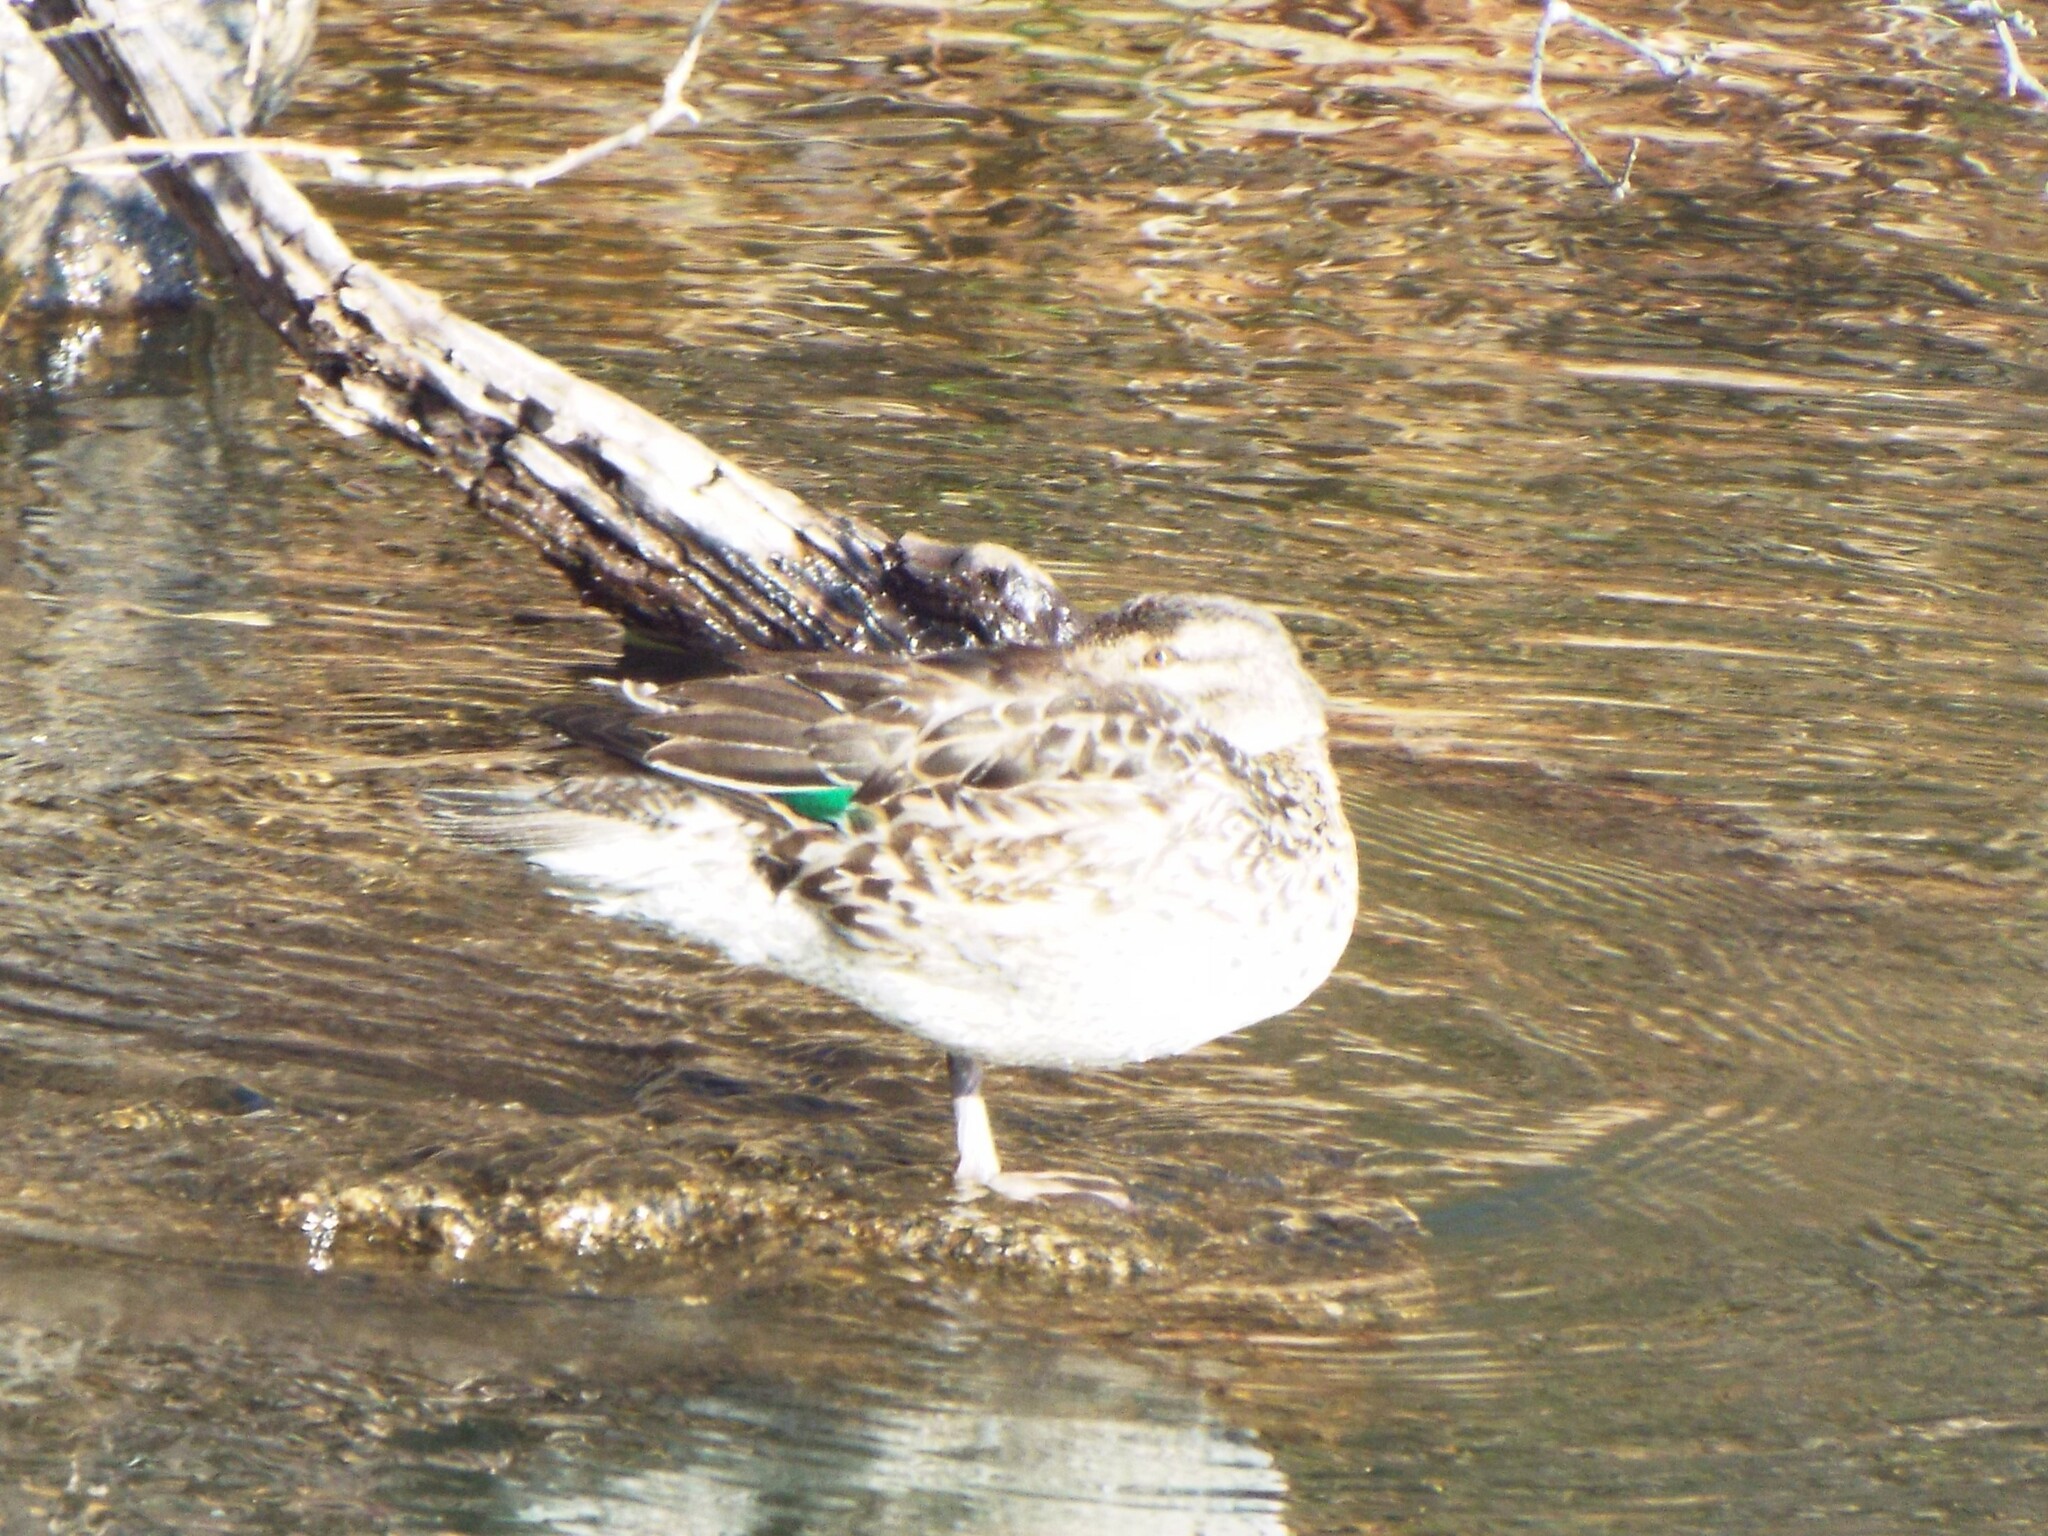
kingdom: Animalia
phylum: Chordata
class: Aves
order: Anseriformes
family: Anatidae
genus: Anas
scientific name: Anas carolinensis
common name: Green-winged teal
